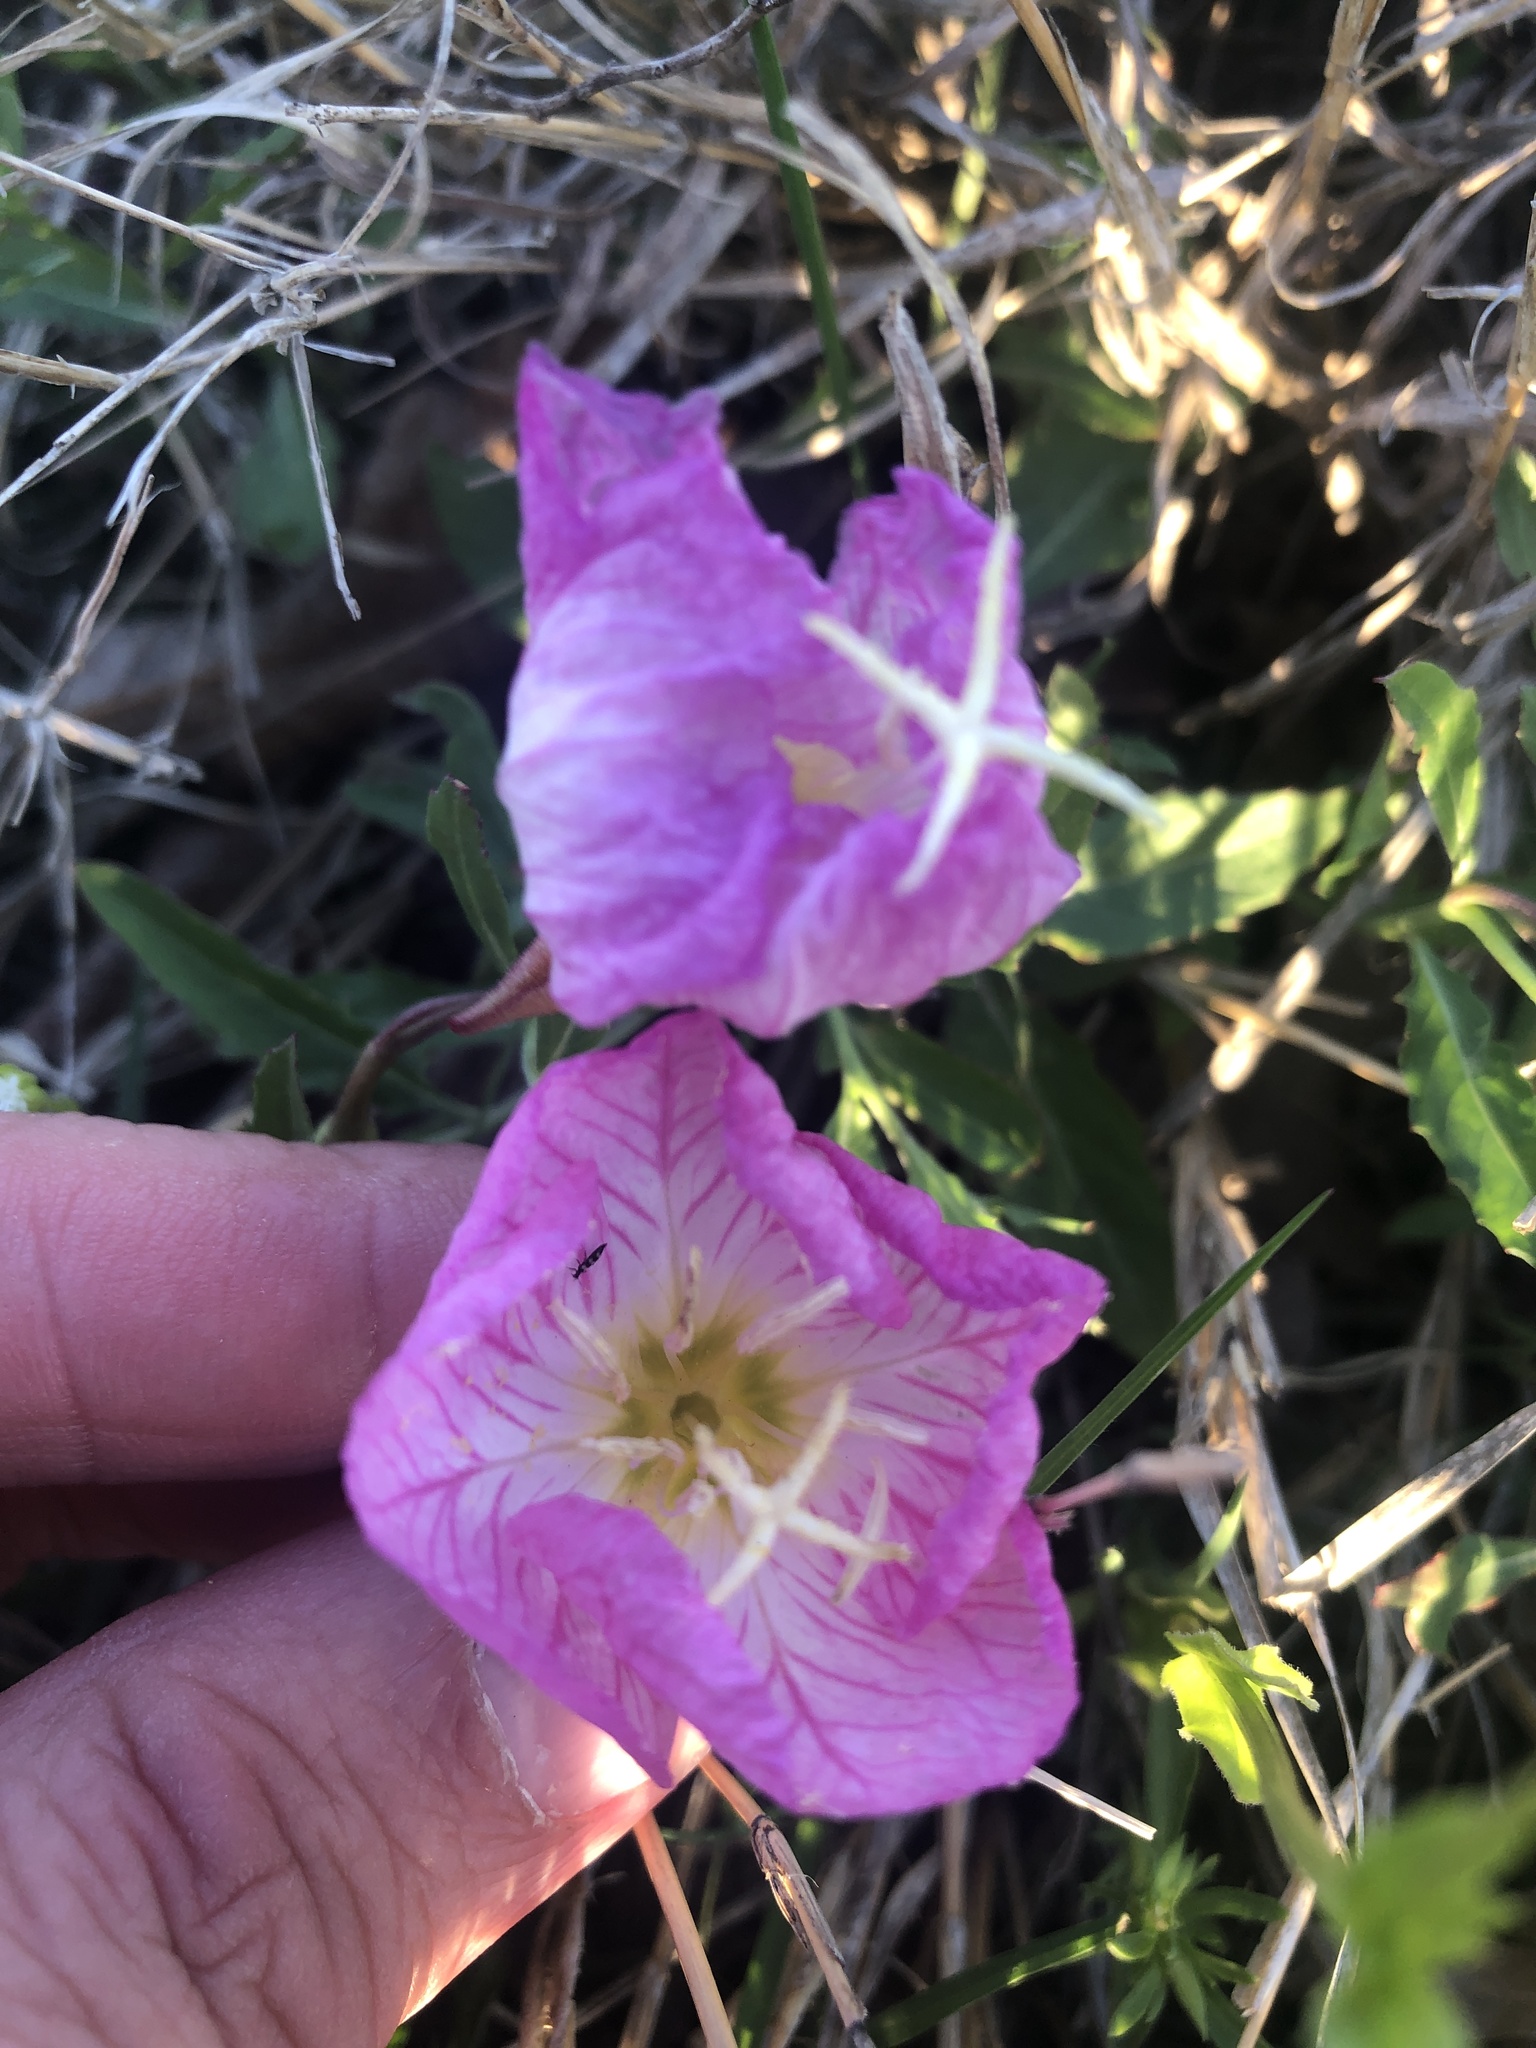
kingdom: Plantae
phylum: Tracheophyta
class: Magnoliopsida
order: Myrtales
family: Onagraceae
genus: Oenothera
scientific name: Oenothera speciosa
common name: White evening-primrose
